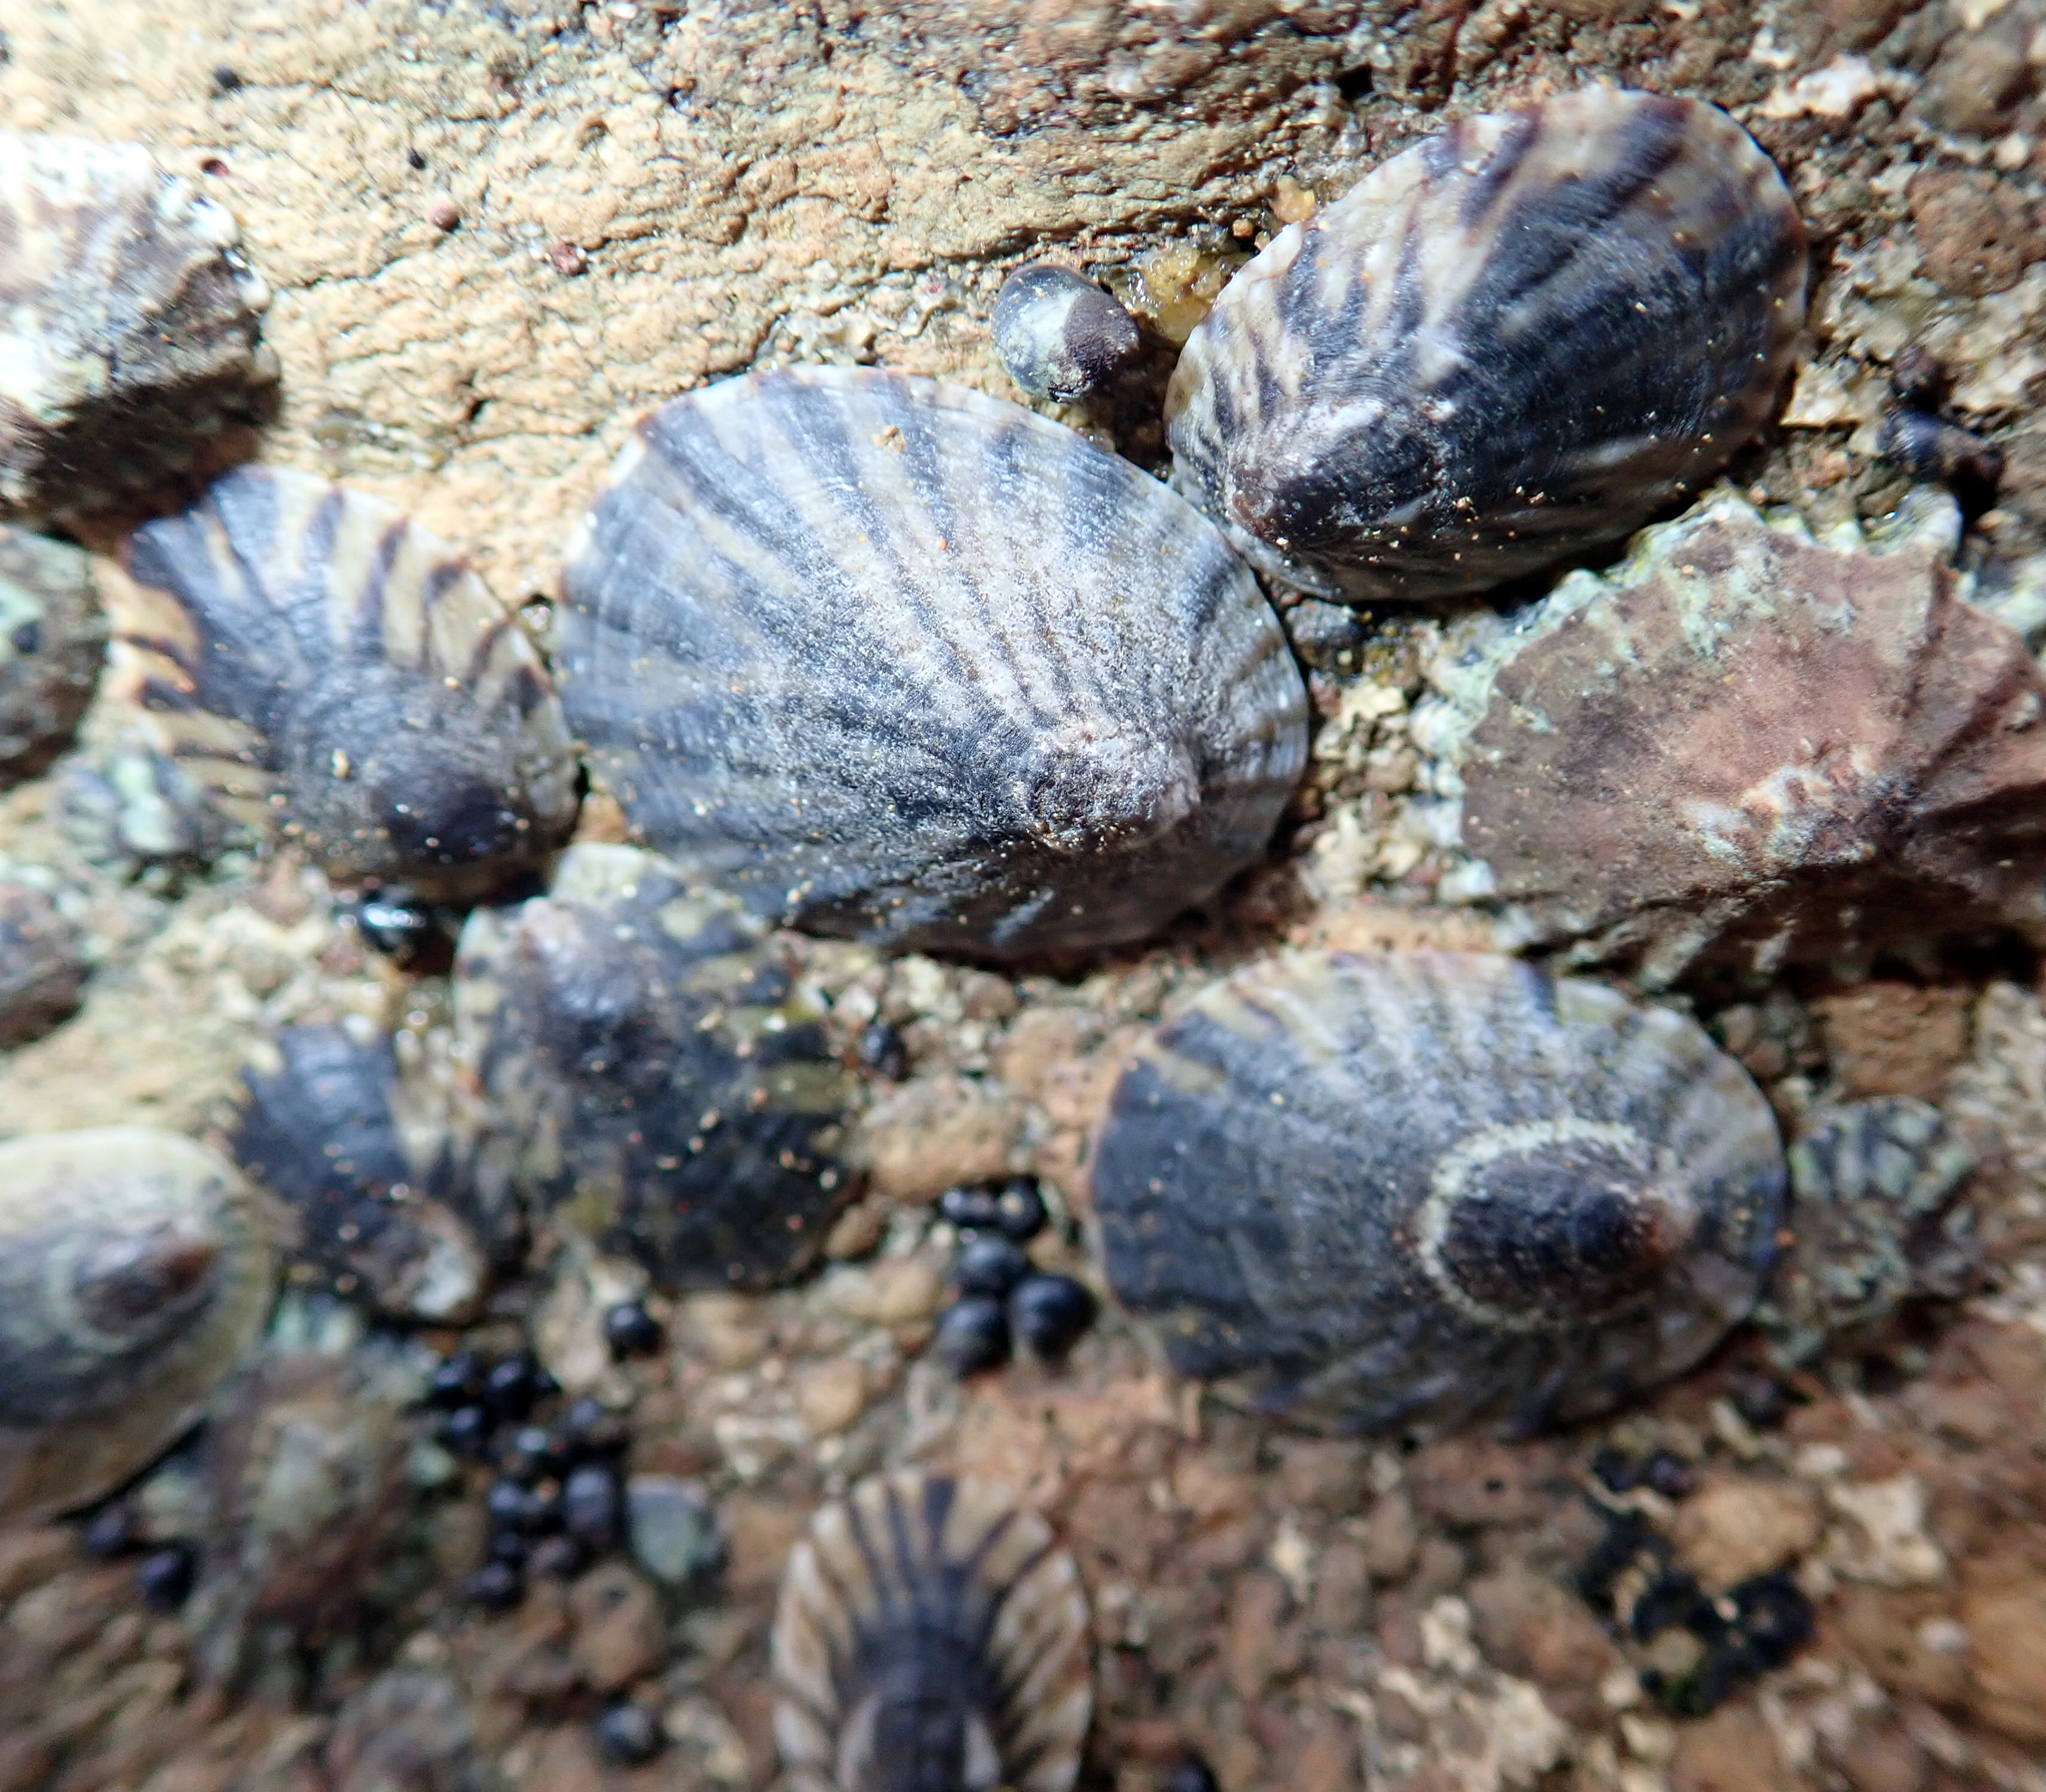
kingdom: Animalia
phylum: Mollusca
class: Gastropoda
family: Nacellidae
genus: Cellana
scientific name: Cellana oliveri
